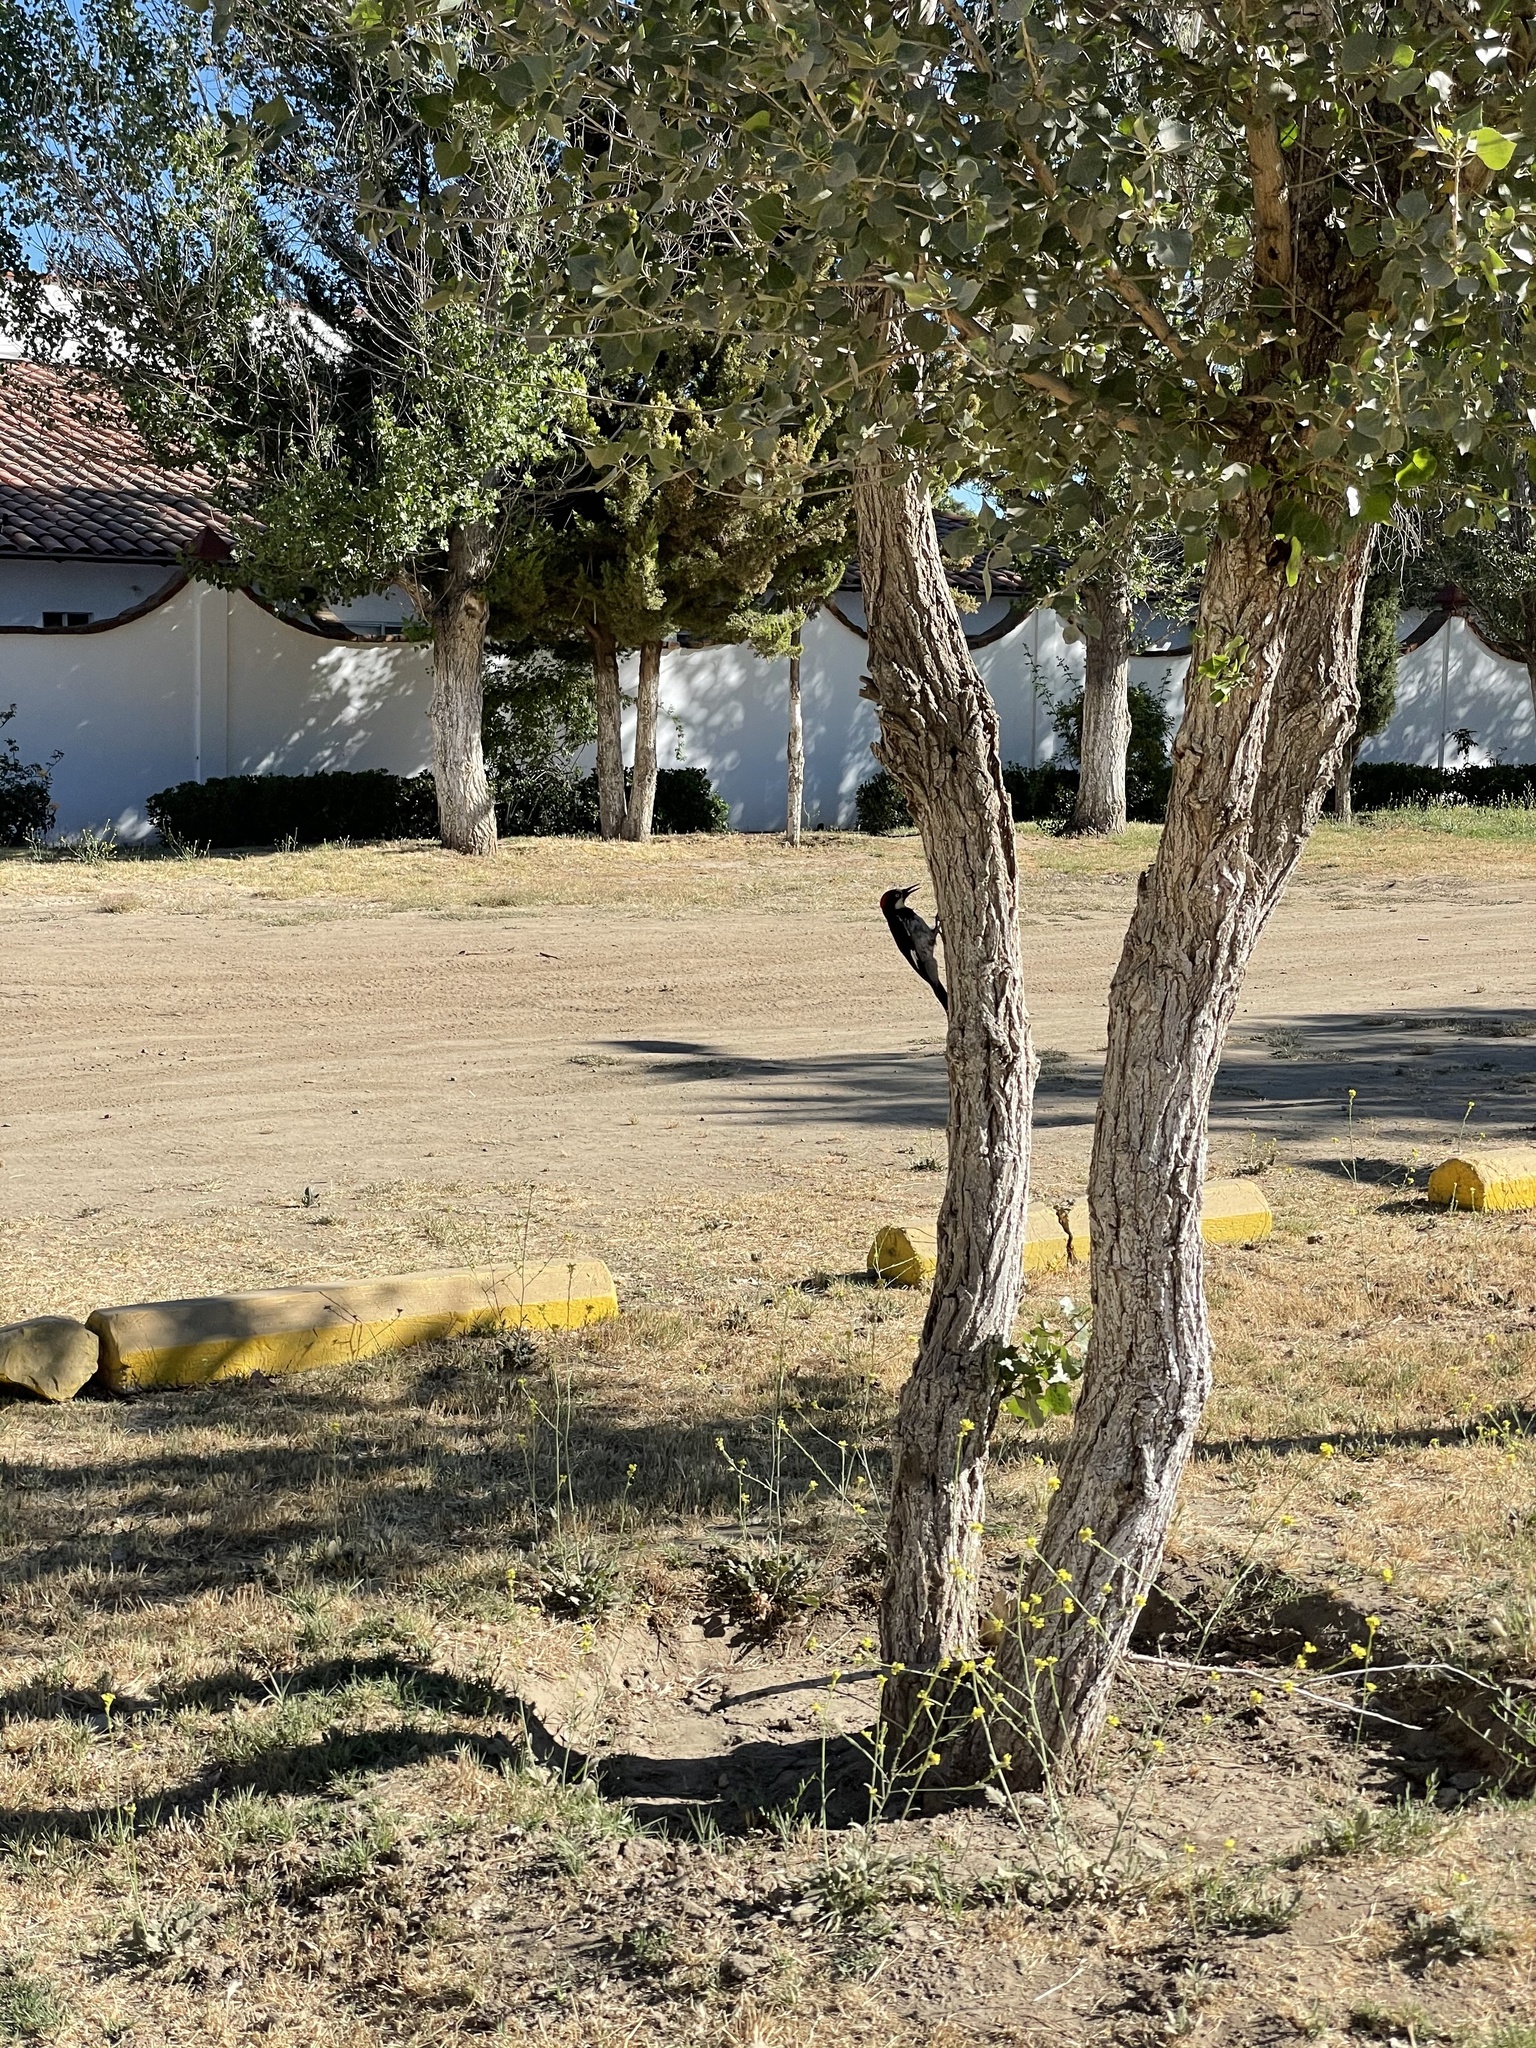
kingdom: Animalia
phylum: Chordata
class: Aves
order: Piciformes
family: Picidae
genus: Melanerpes
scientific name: Melanerpes formicivorus
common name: Acorn woodpecker
